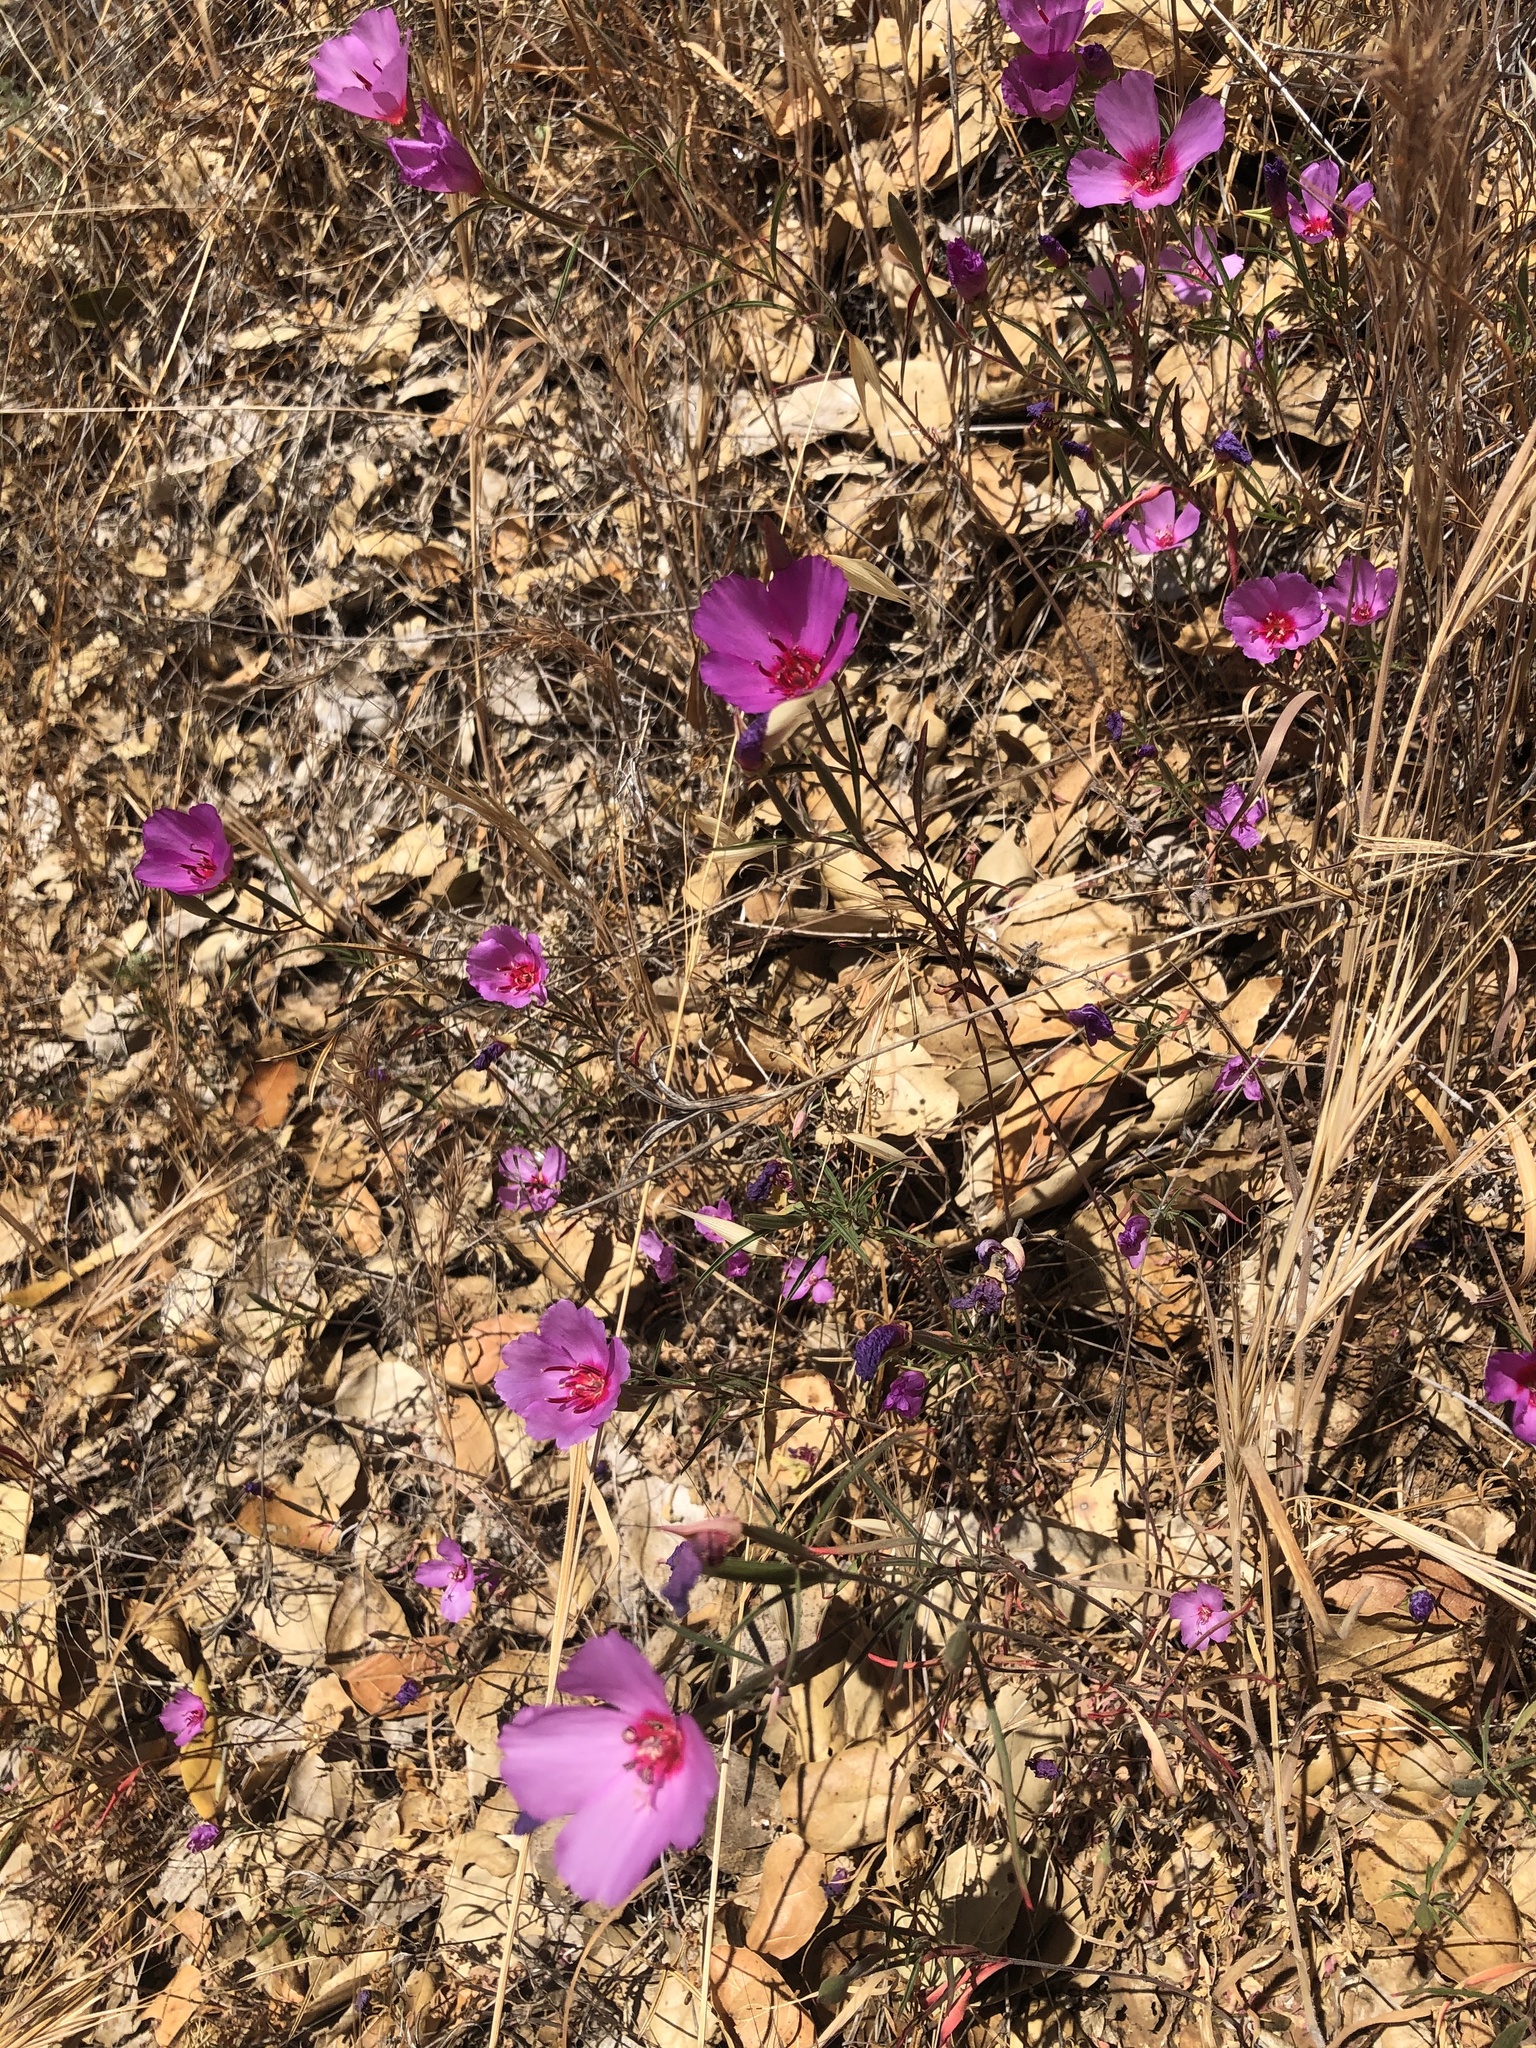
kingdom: Plantae
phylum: Tracheophyta
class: Magnoliopsida
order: Myrtales
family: Onagraceae
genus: Clarkia
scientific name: Clarkia rubicunda
